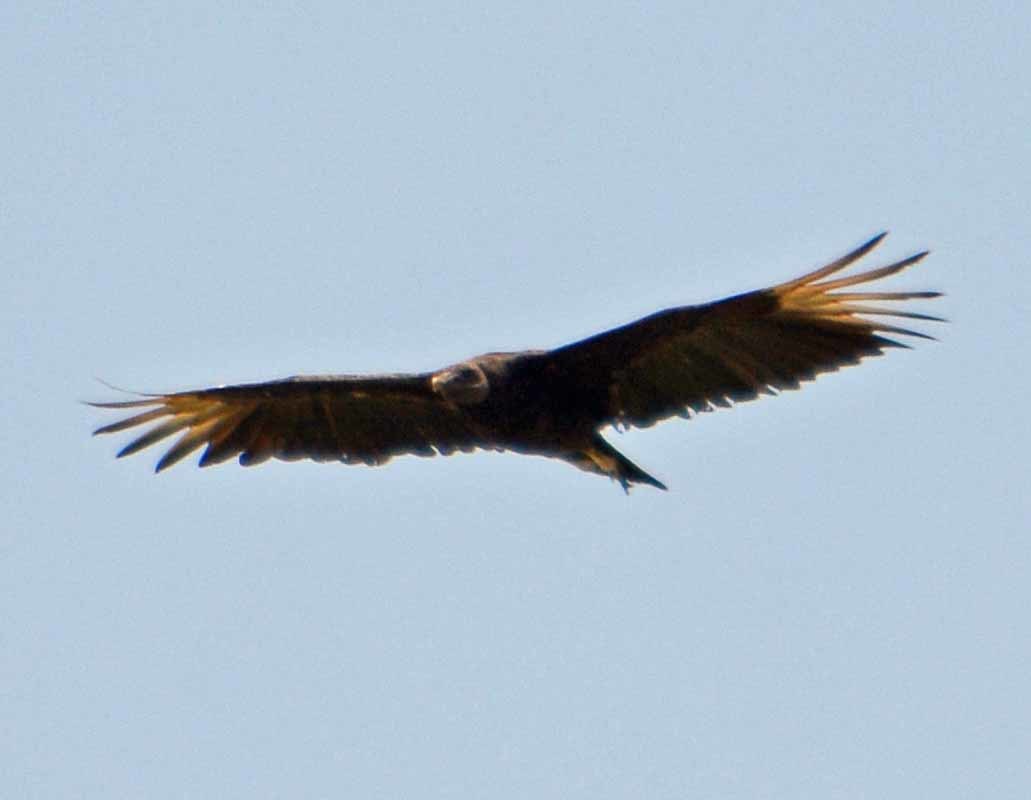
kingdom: Animalia
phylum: Chordata
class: Aves
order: Accipitriformes
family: Cathartidae
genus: Coragyps
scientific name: Coragyps atratus
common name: Black vulture
